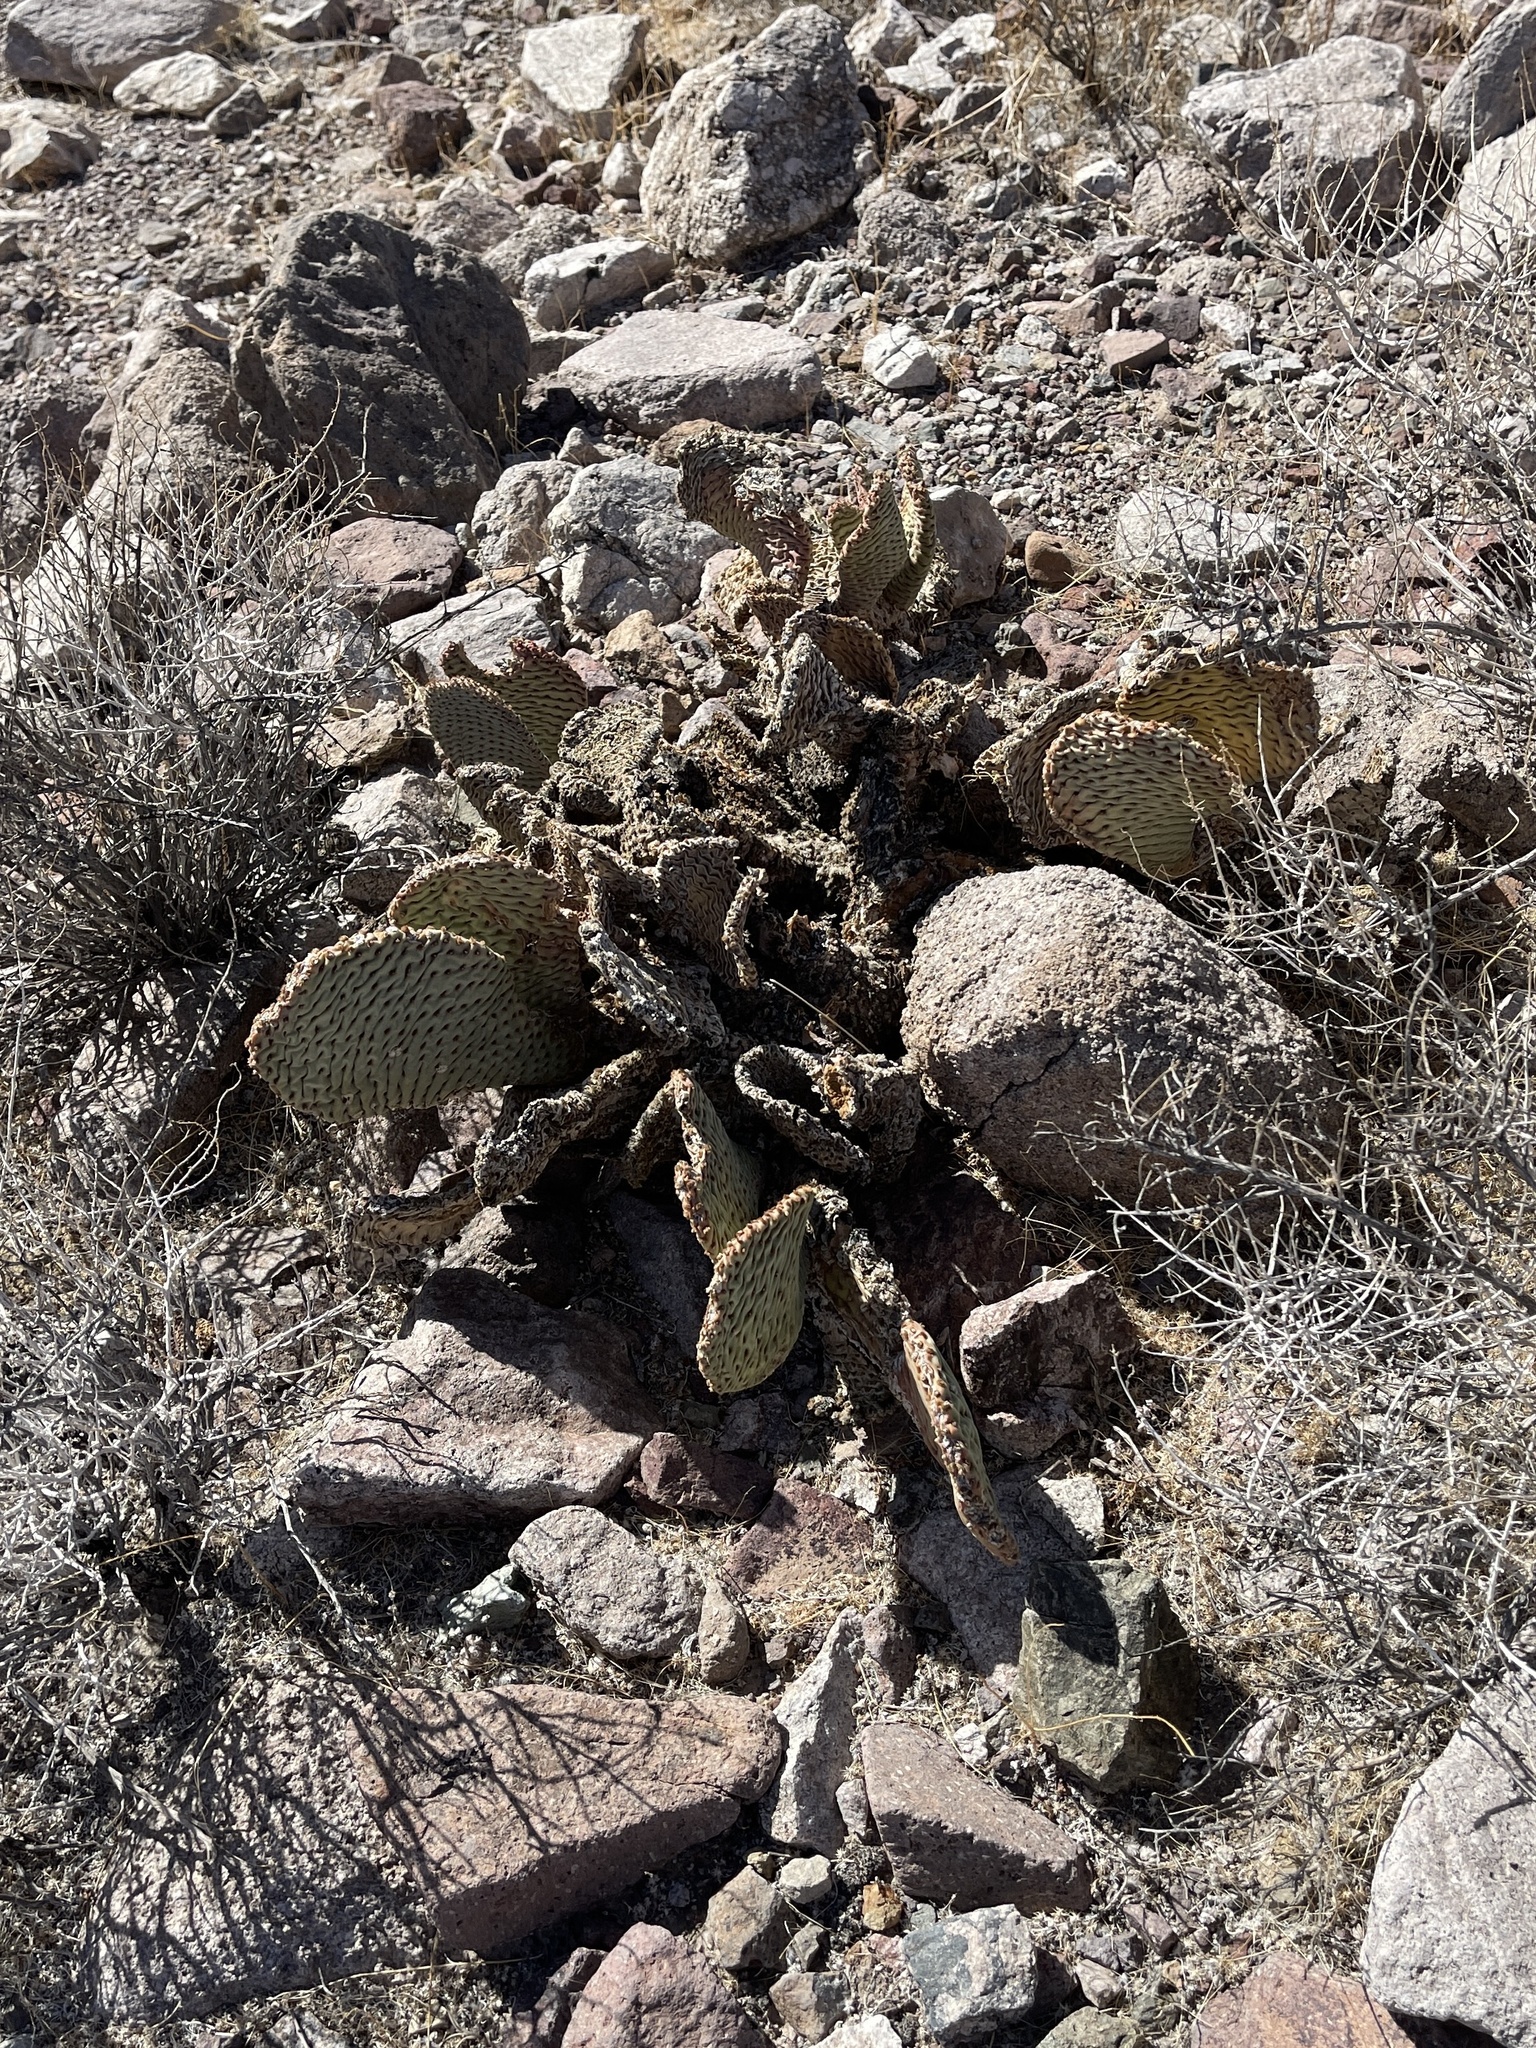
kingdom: Plantae
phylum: Tracheophyta
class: Magnoliopsida
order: Caryophyllales
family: Cactaceae
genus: Opuntia
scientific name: Opuntia basilaris
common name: Beavertail prickly-pear
